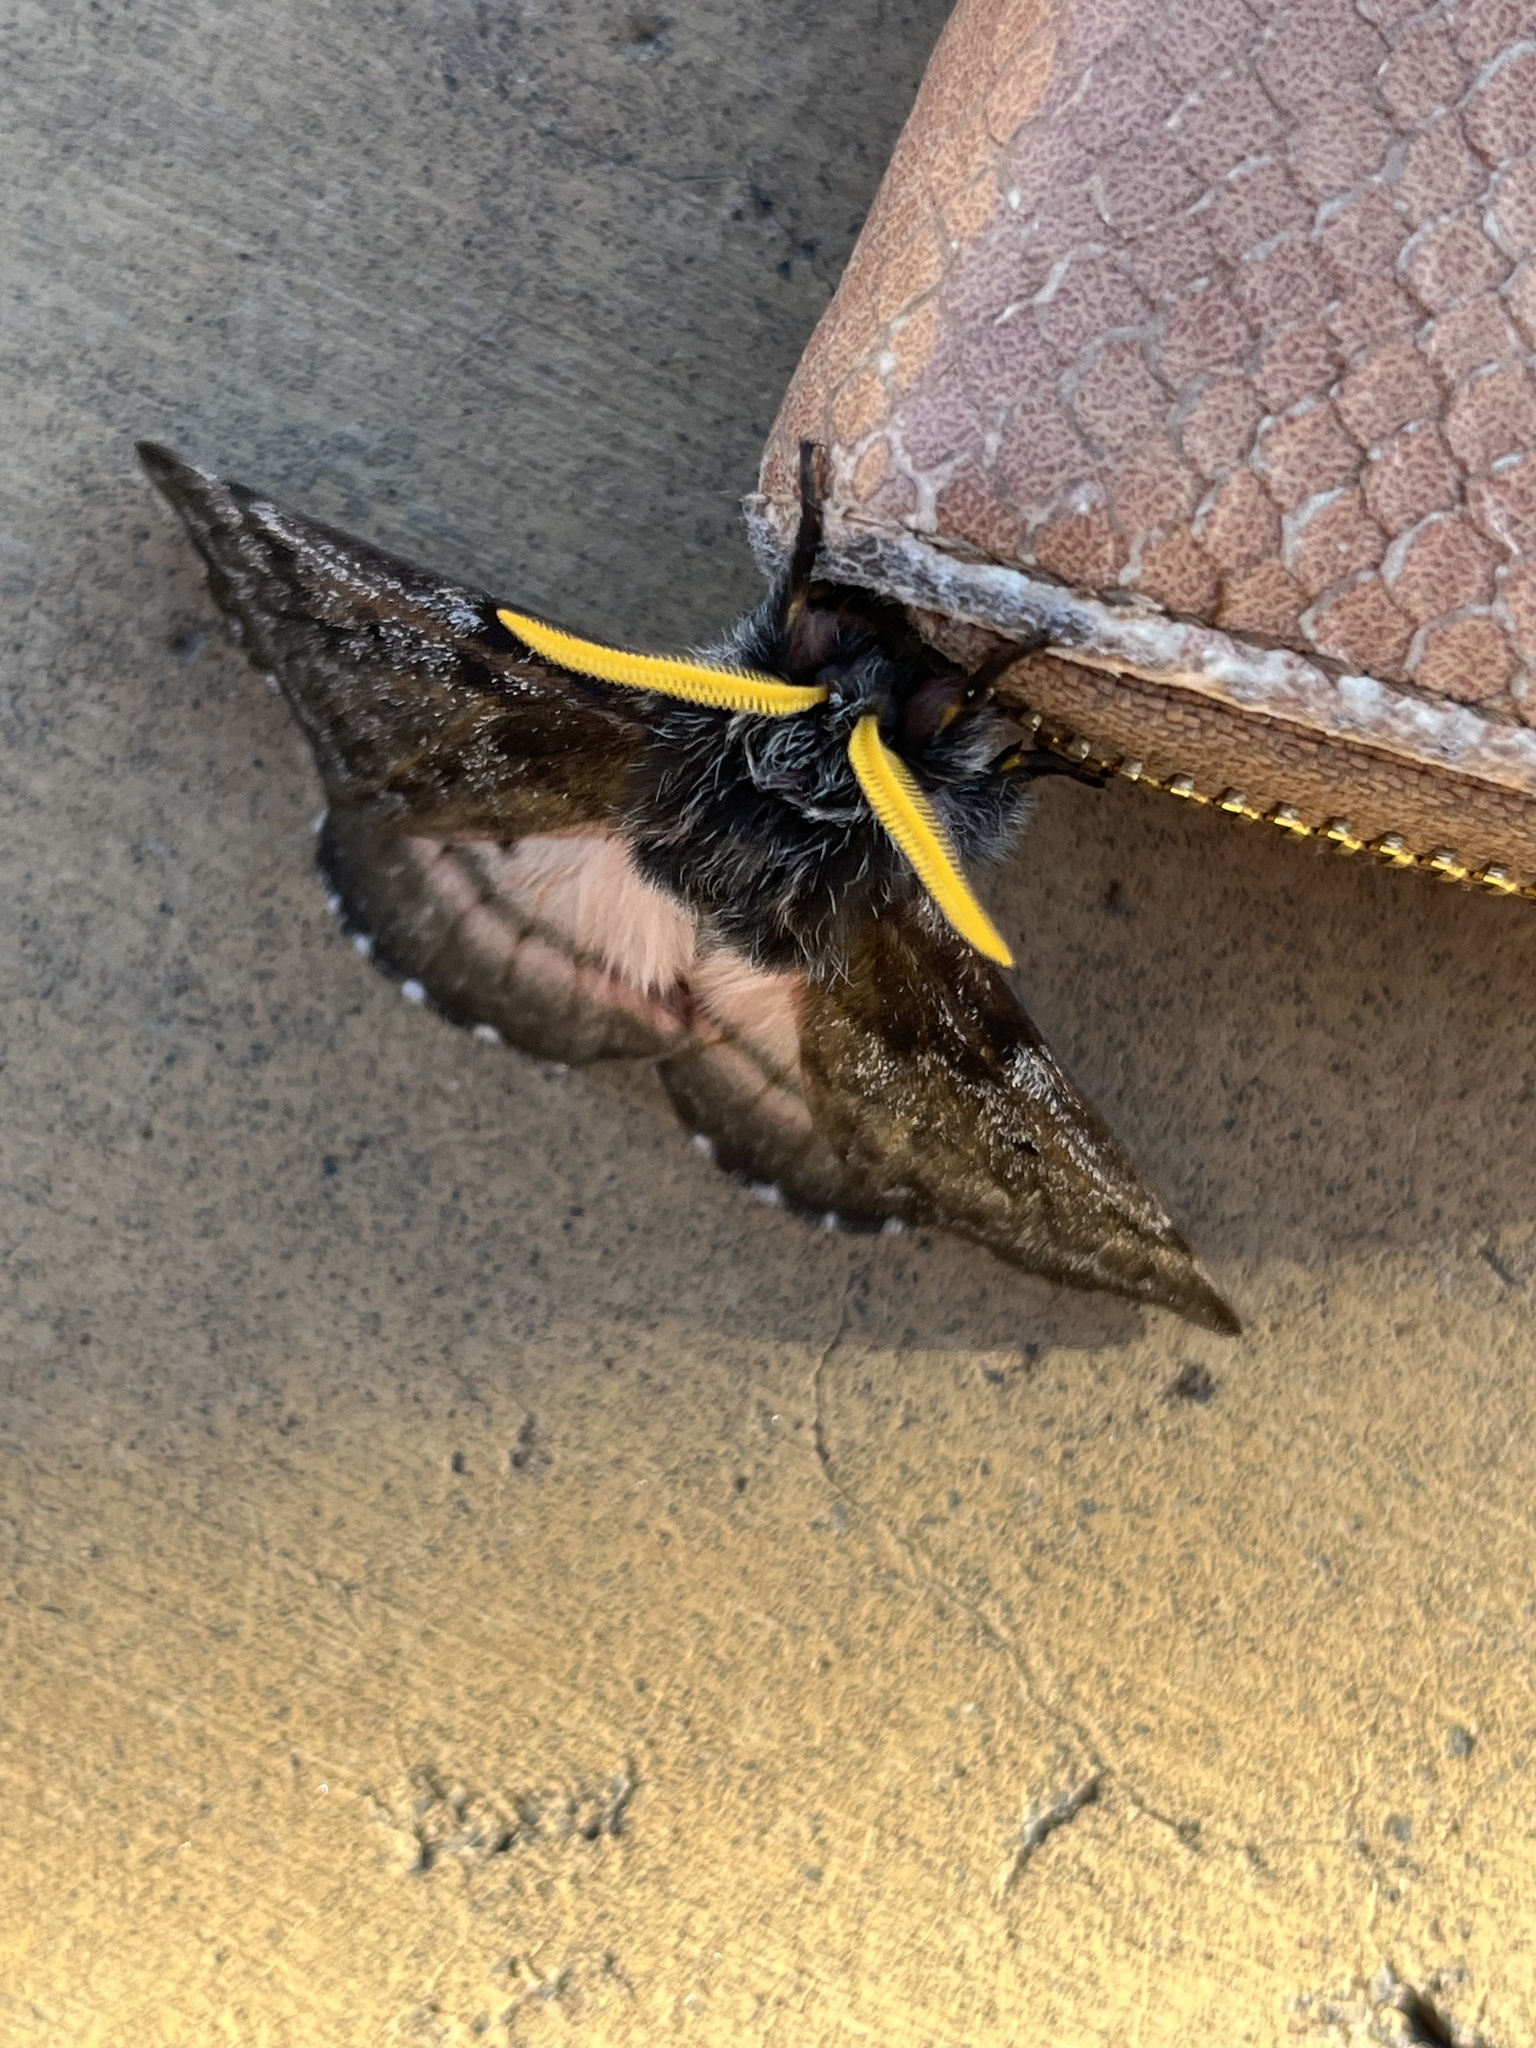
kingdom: Animalia
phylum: Arthropoda
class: Insecta
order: Lepidoptera
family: Saturniidae
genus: Coloradia
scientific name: Coloradia pandora
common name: Pandora pinemoth
